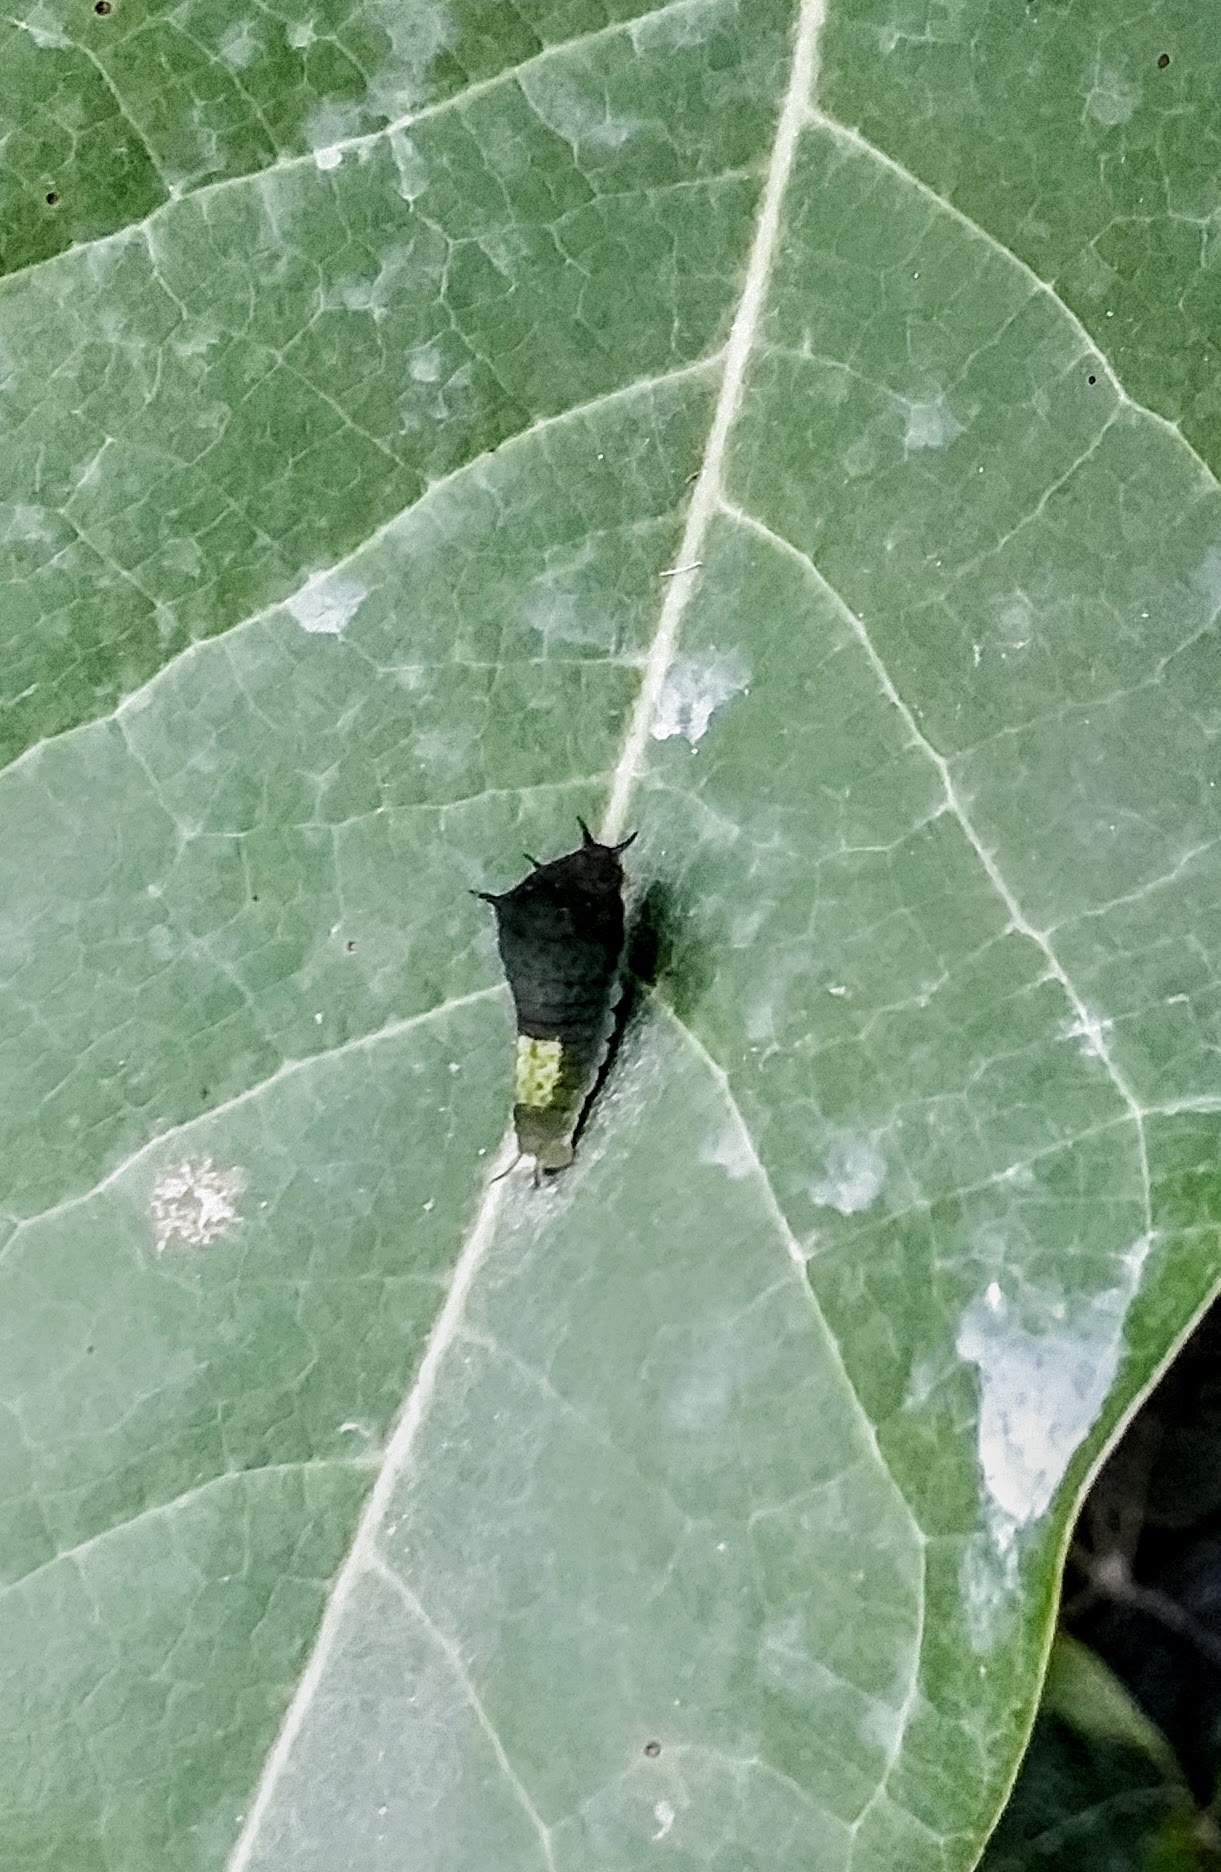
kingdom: Animalia
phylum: Arthropoda
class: Insecta
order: Lepidoptera
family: Papilionidae
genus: Graphium
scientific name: Graphium agamemnon
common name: Tailed jay
